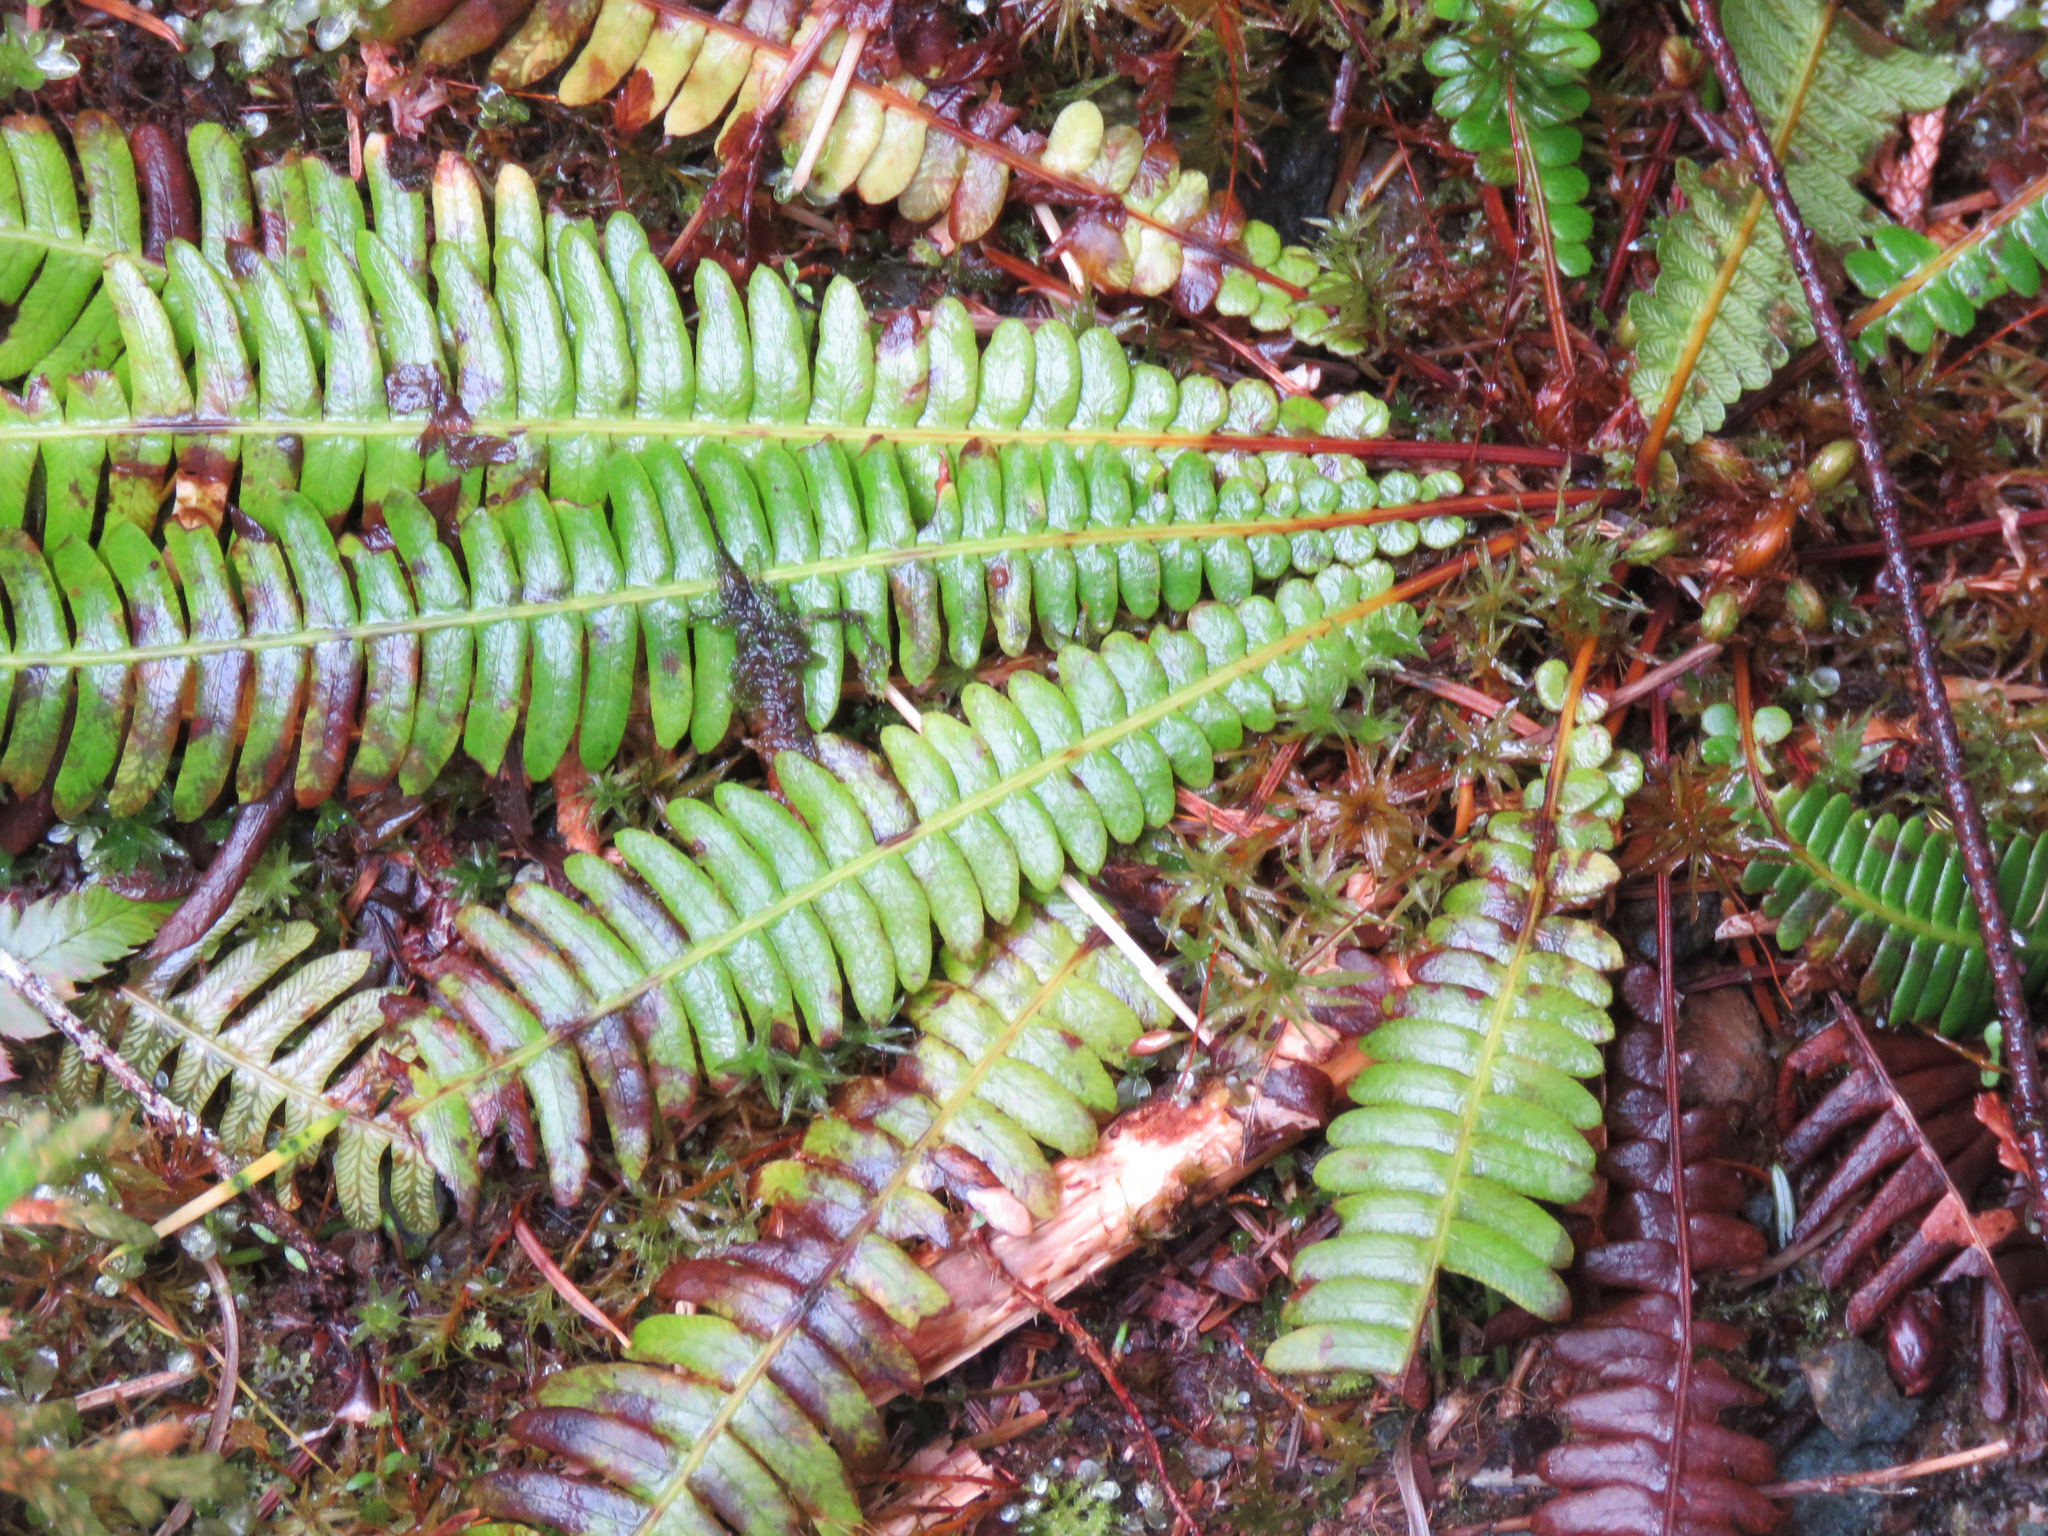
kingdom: Plantae
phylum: Tracheophyta
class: Polypodiopsida
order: Polypodiales
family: Blechnaceae
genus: Struthiopteris
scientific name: Struthiopteris spicant
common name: Deer fern
